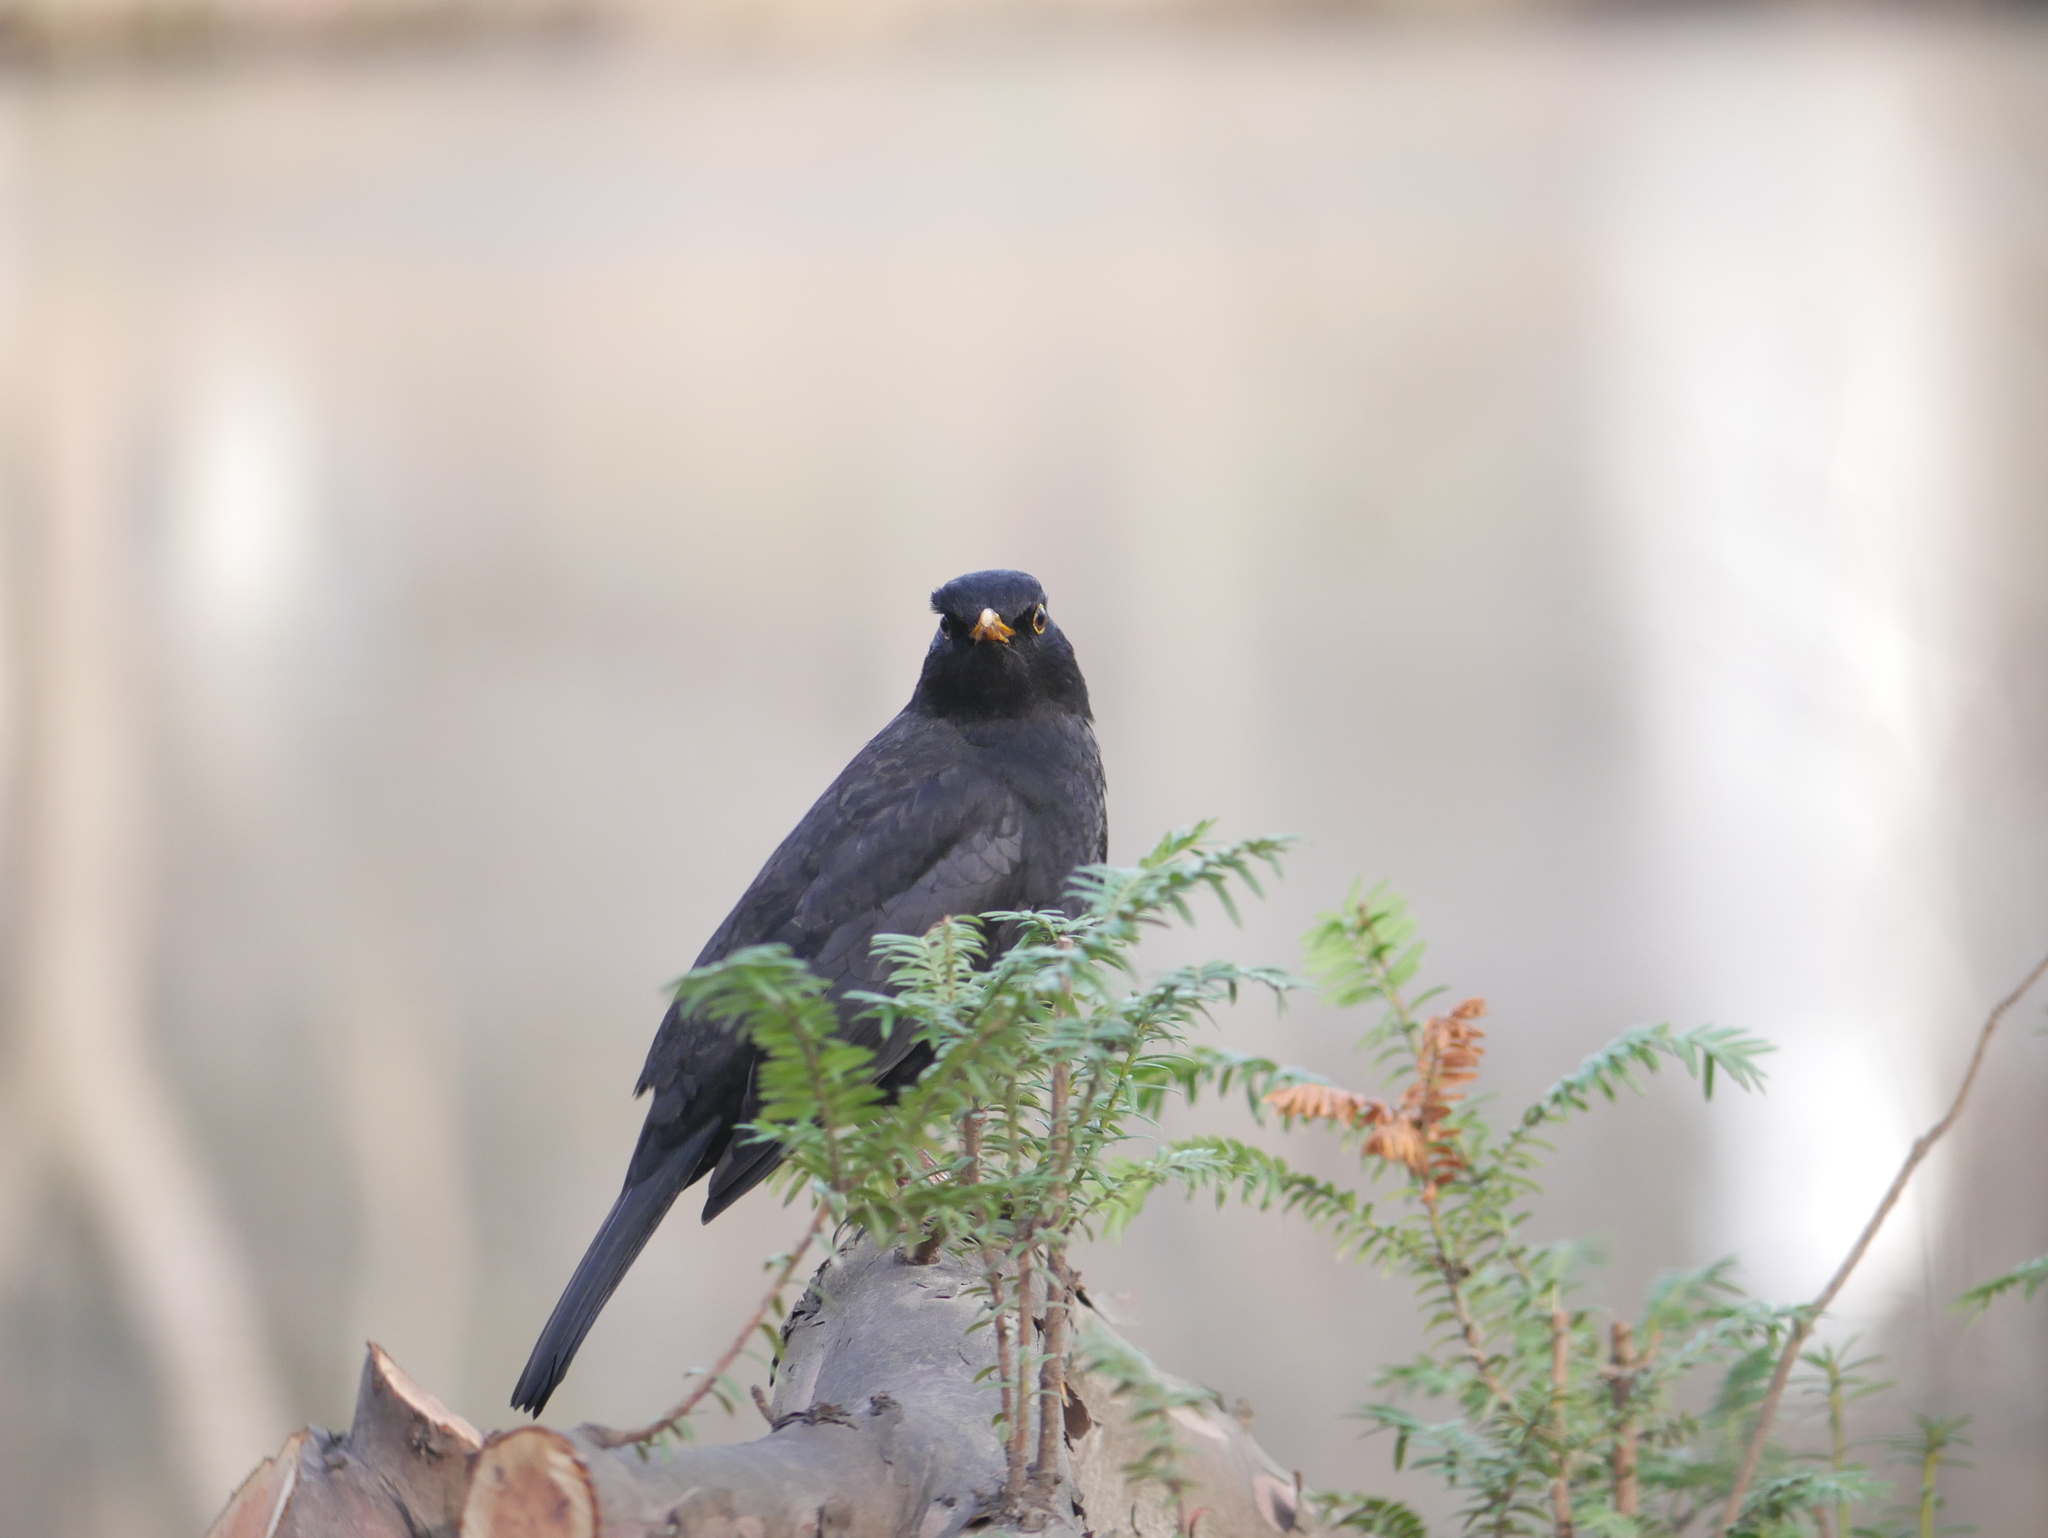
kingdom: Animalia
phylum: Chordata
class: Aves
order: Passeriformes
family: Turdidae
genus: Turdus
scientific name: Turdus merula
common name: Common blackbird
